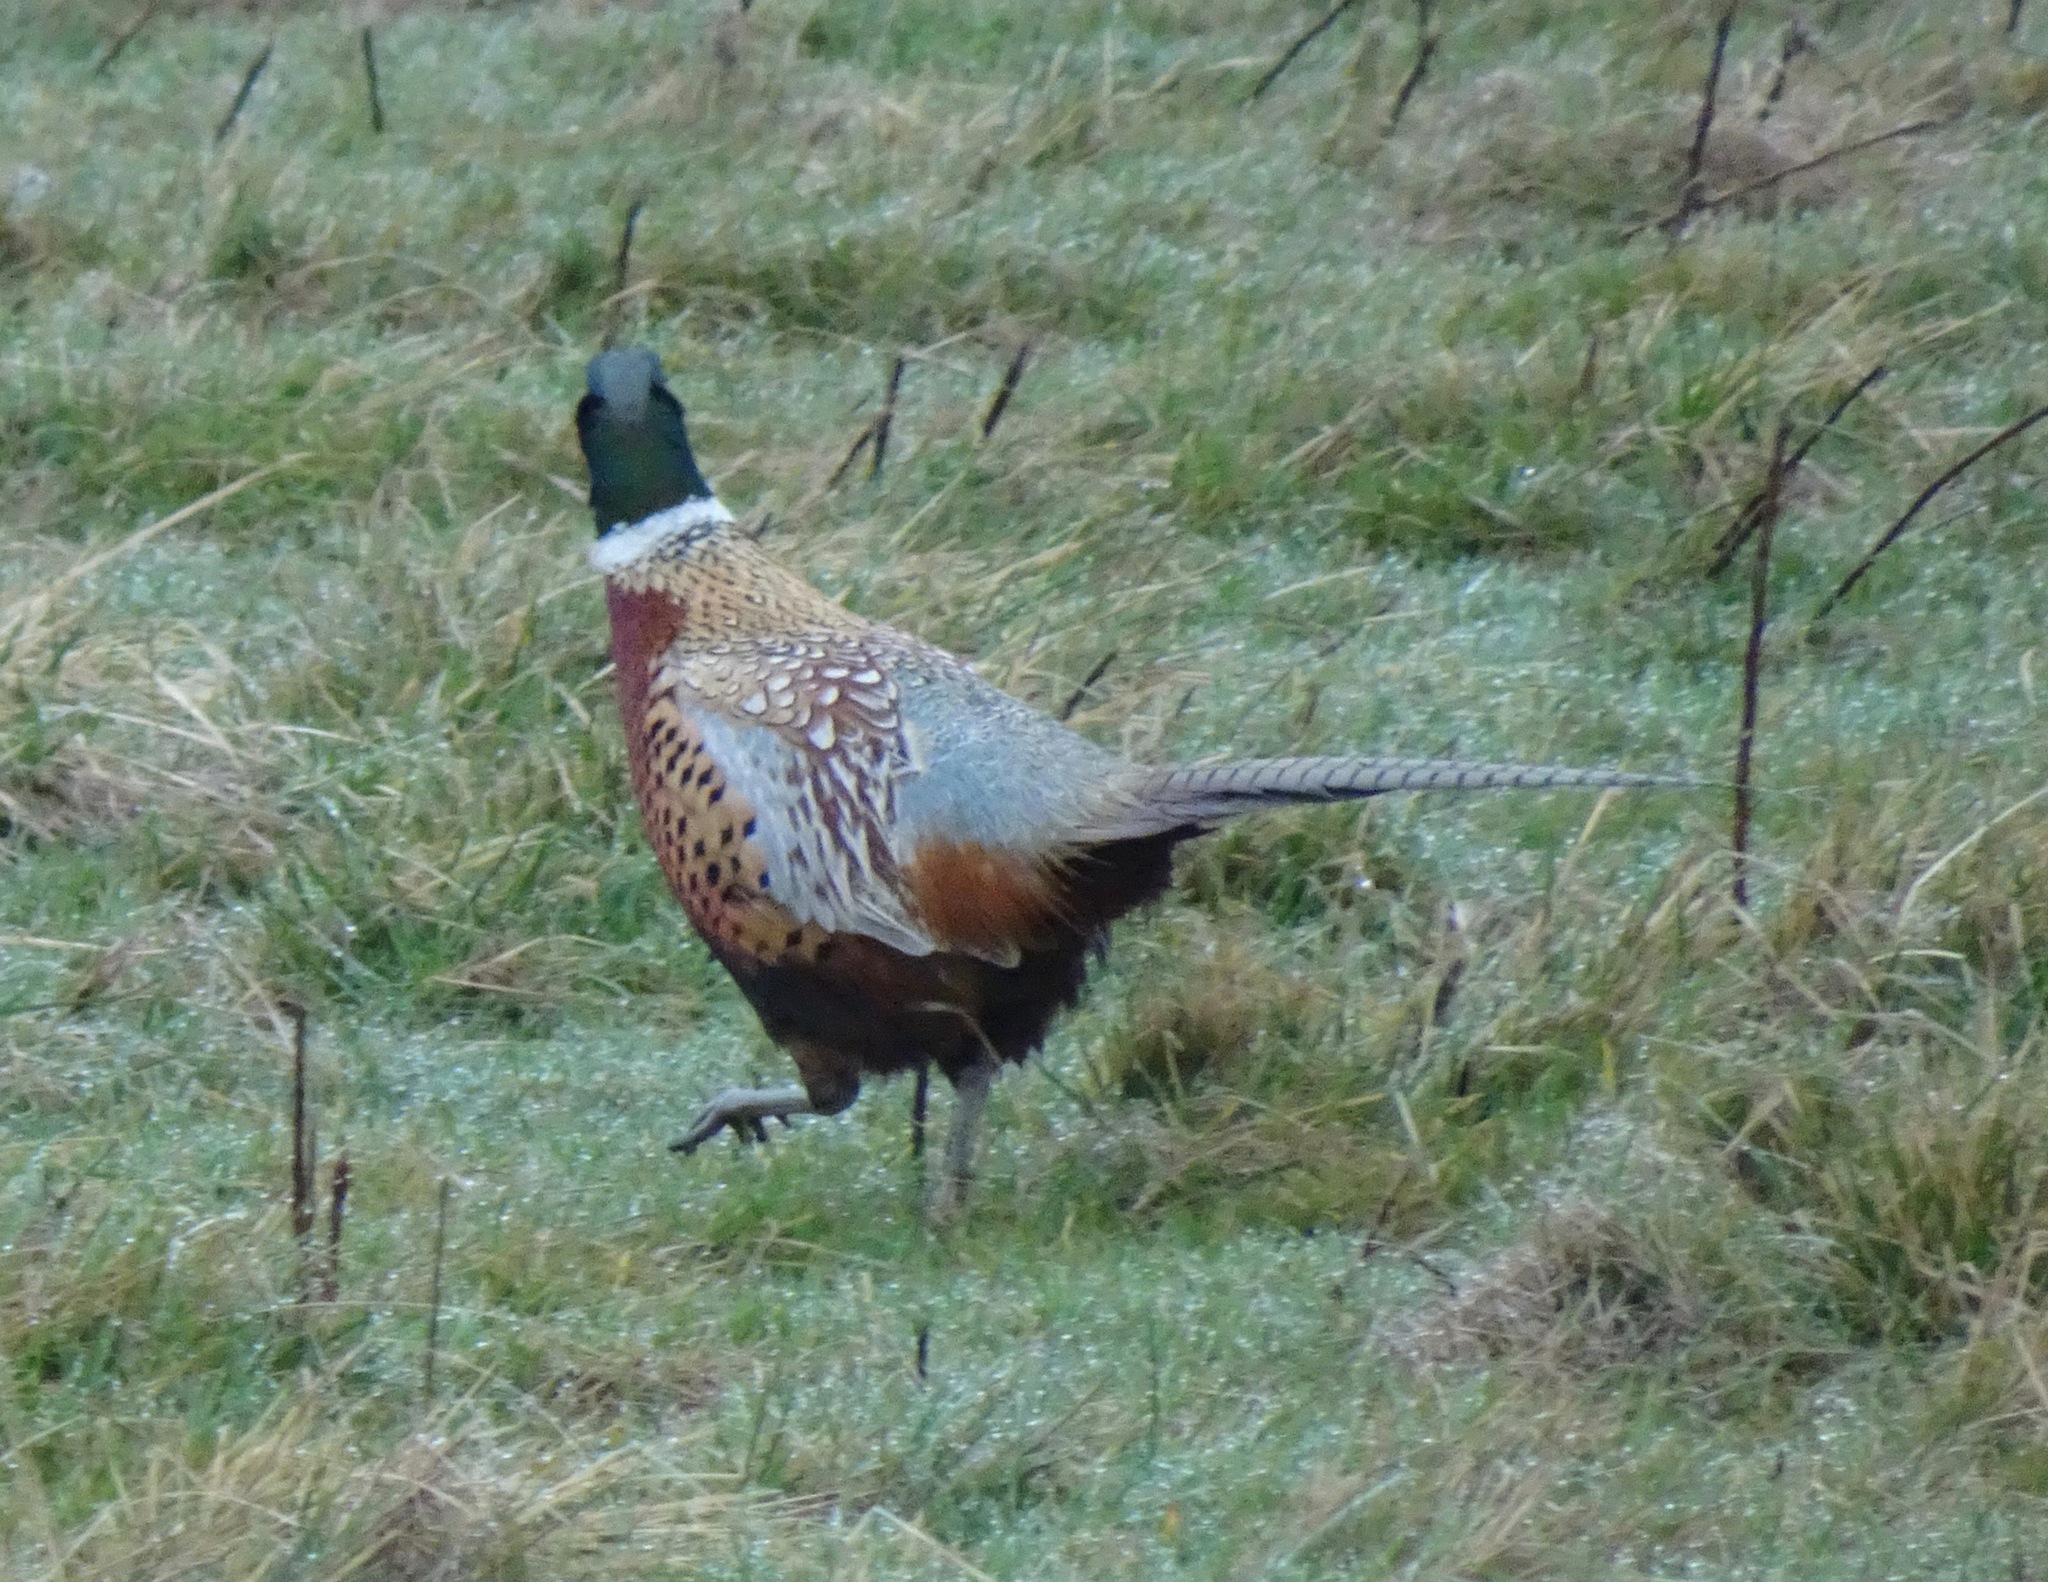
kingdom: Animalia
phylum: Chordata
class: Aves
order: Galliformes
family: Phasianidae
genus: Phasianus
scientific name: Phasianus colchicus
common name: Common pheasant
